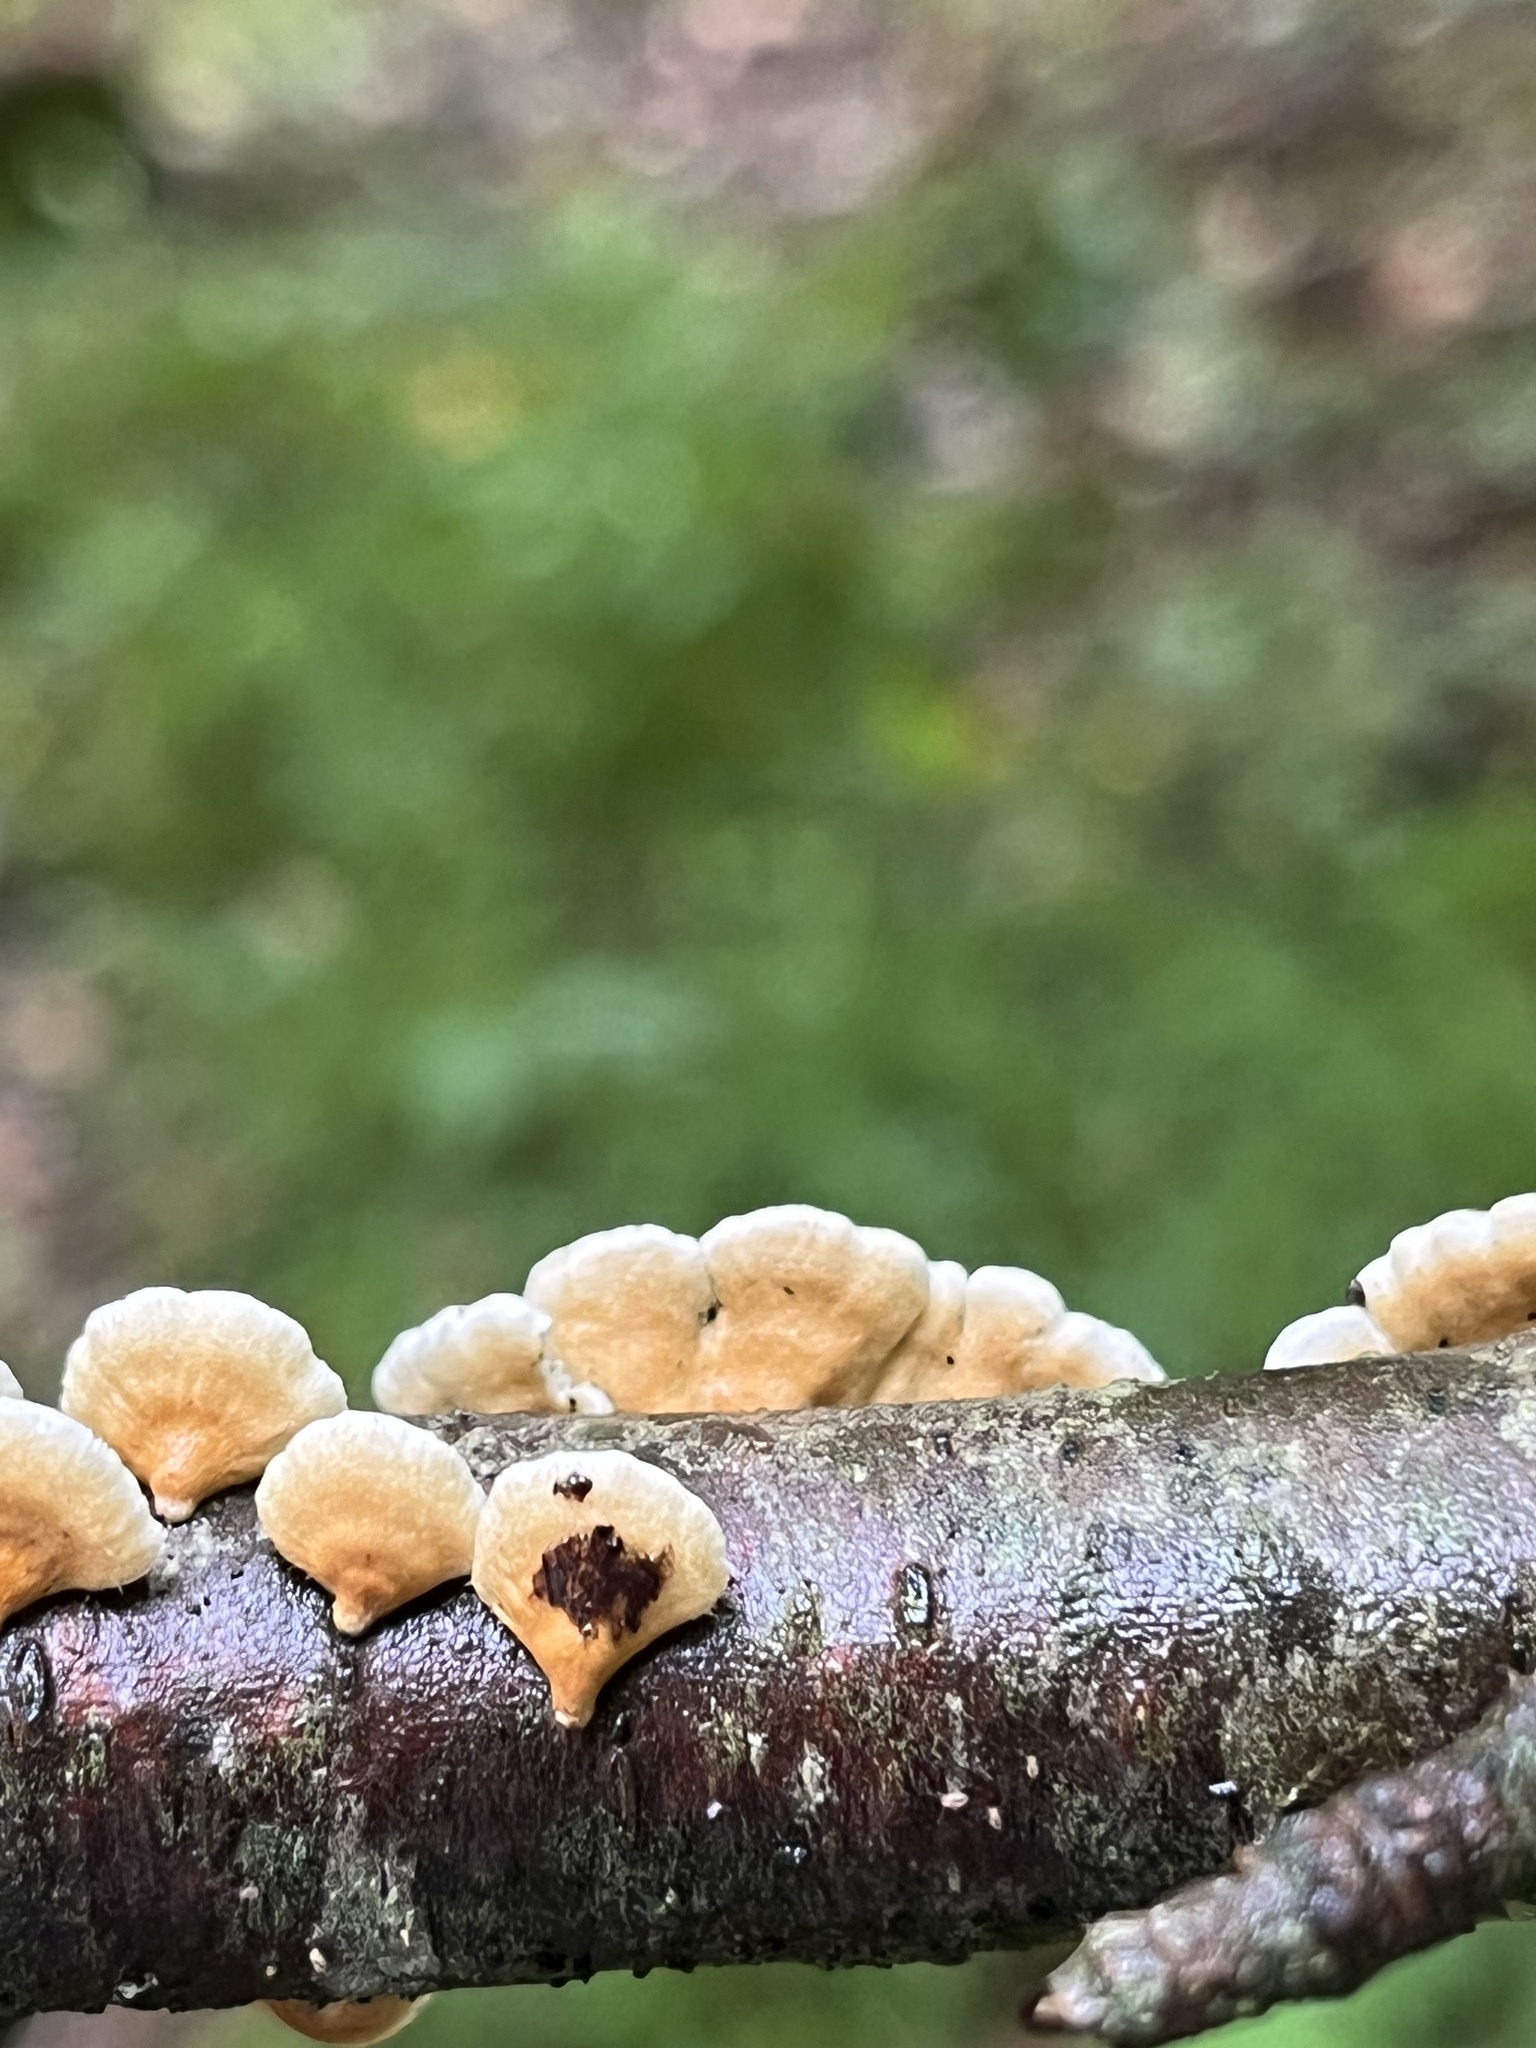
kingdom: Fungi
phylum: Basidiomycota
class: Agaricomycetes
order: Amylocorticiales
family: Amylocorticiaceae
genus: Plicaturopsis
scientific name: Plicaturopsis crispa
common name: Crimped gill
